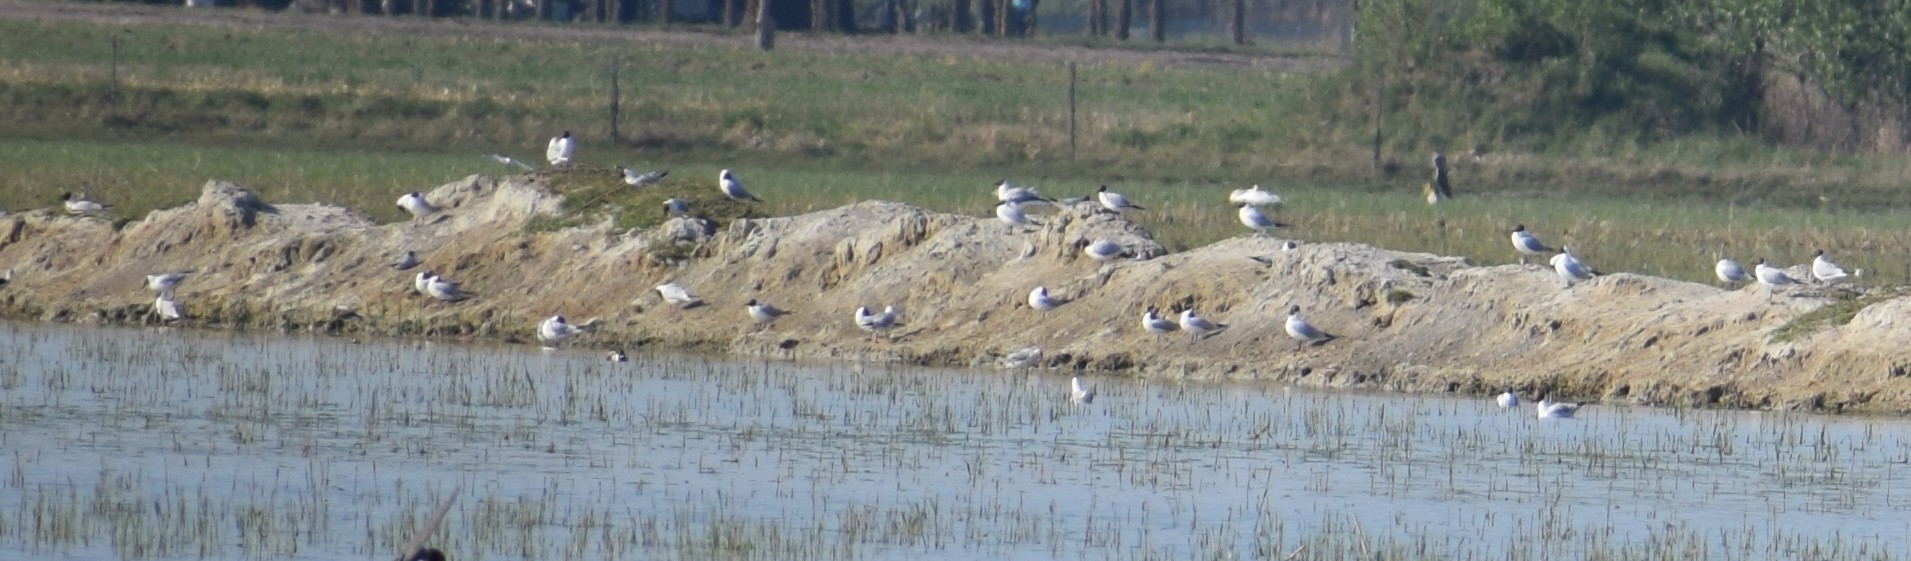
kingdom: Animalia
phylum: Chordata
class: Aves
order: Charadriiformes
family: Laridae
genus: Chroicocephalus
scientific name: Chroicocephalus ridibundus
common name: Black-headed gull
